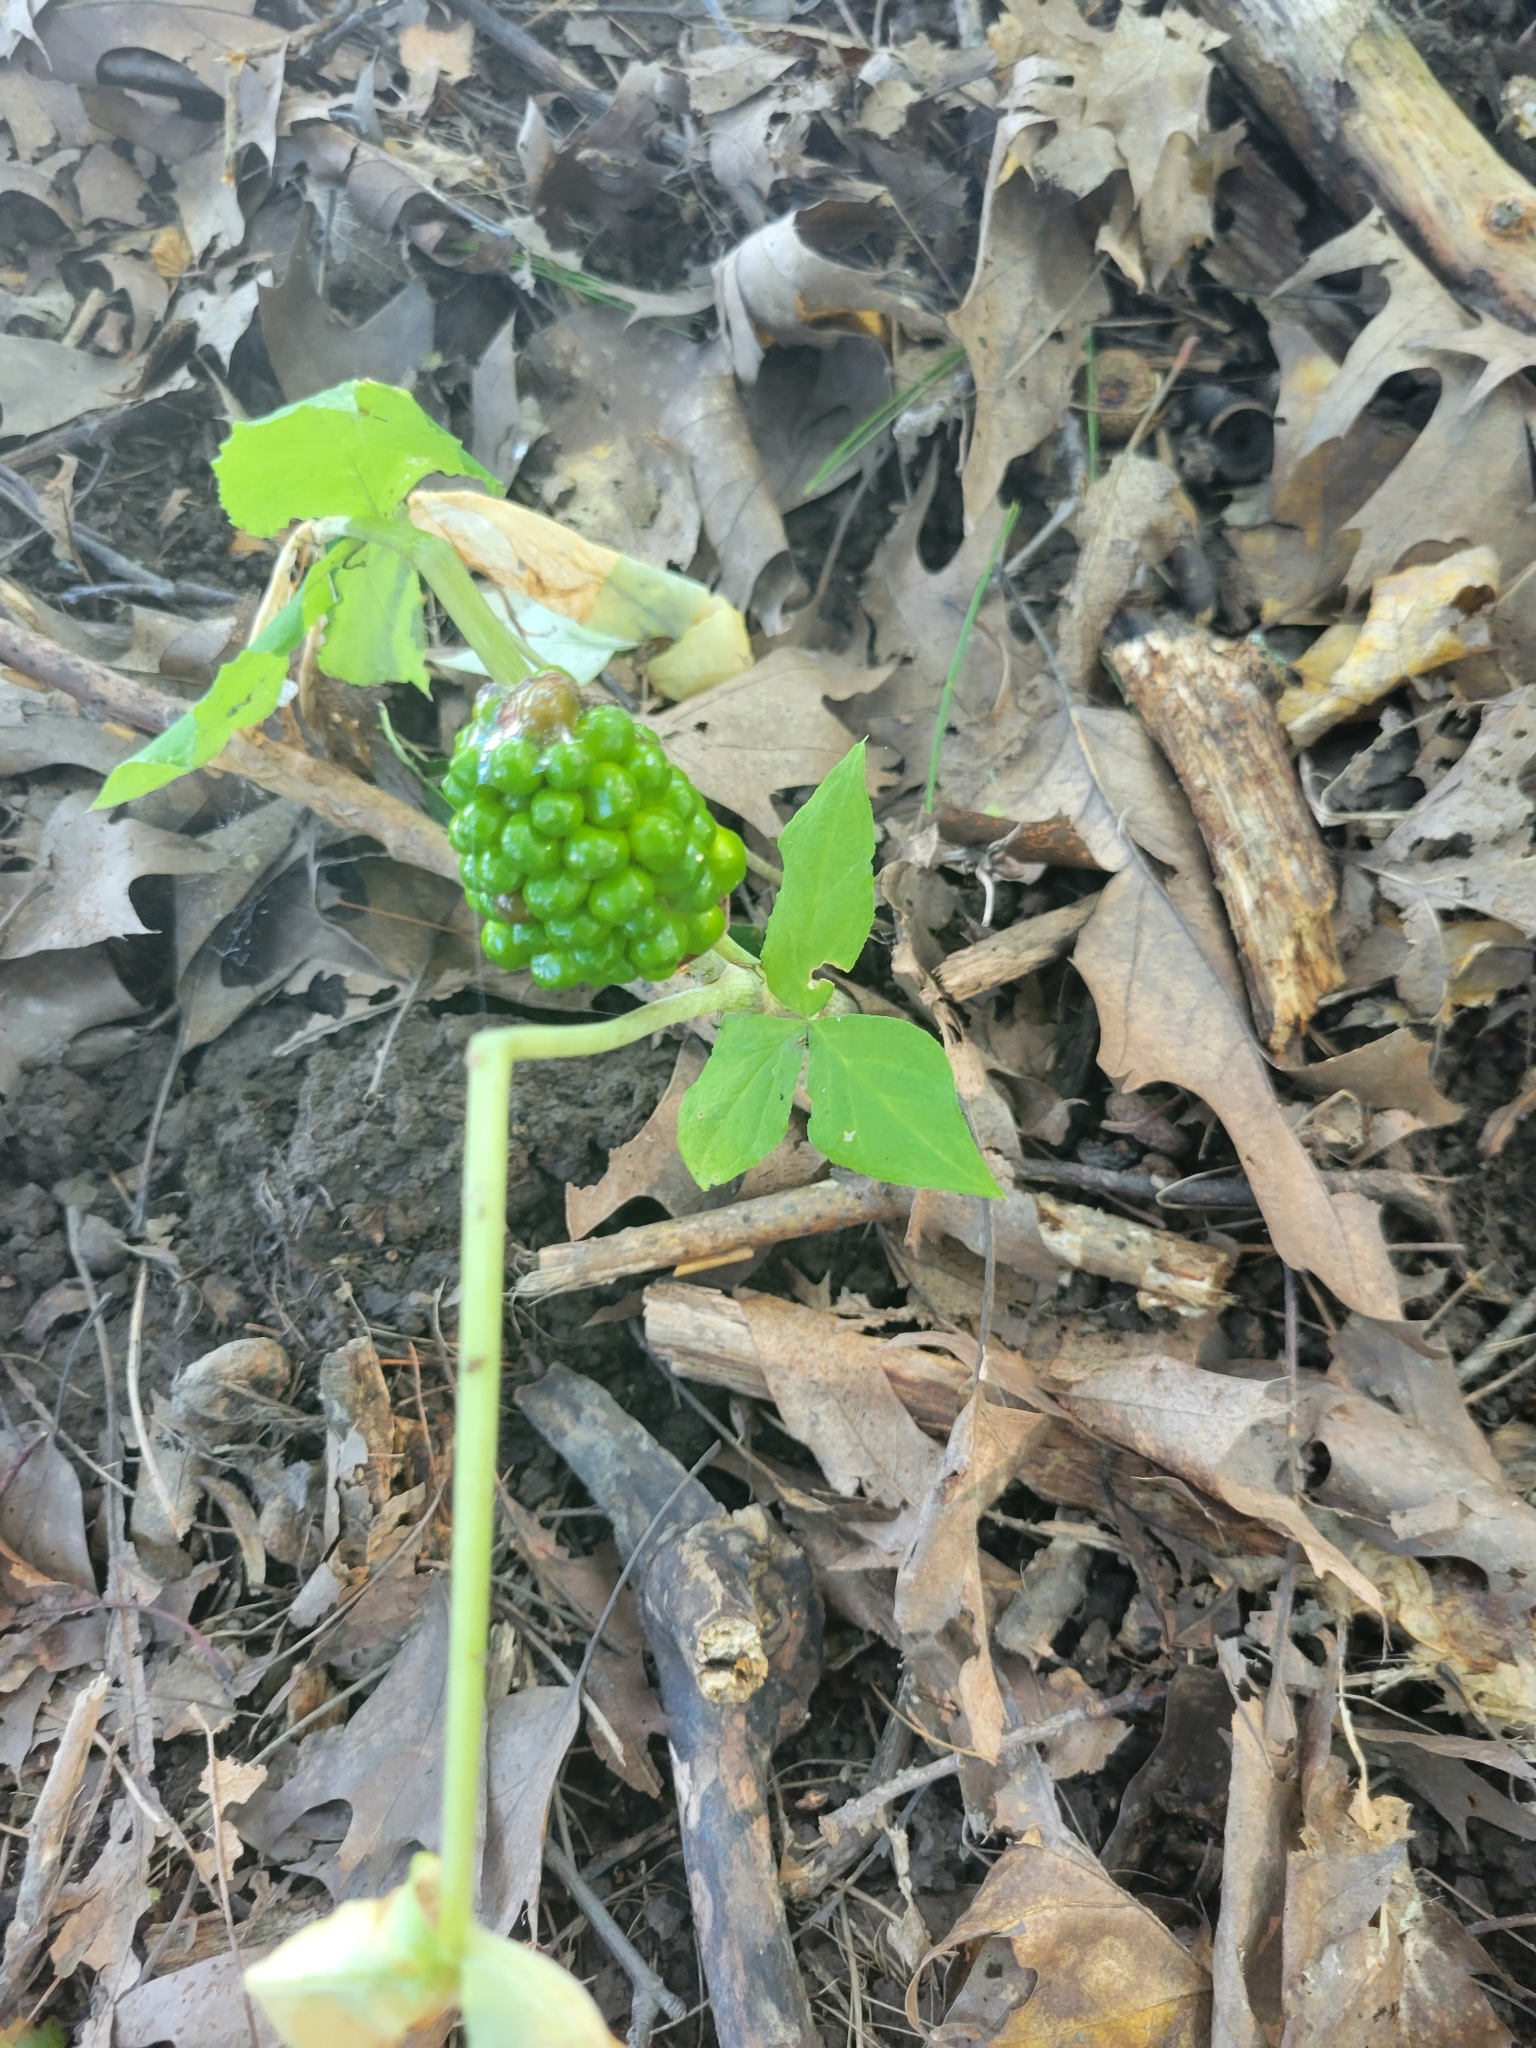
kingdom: Plantae
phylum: Tracheophyta
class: Liliopsida
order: Alismatales
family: Araceae
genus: Arisaema
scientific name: Arisaema triphyllum
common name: Jack-in-the-pulpit
